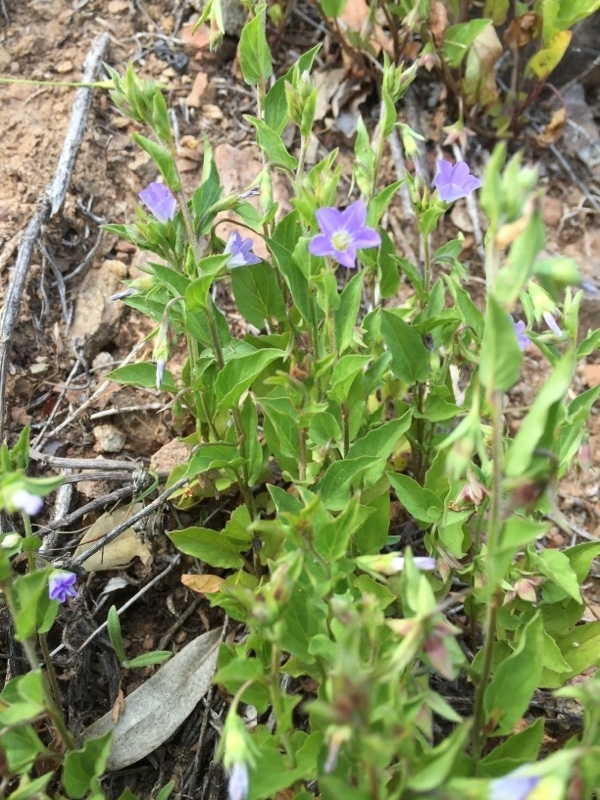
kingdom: Plantae
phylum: Tracheophyta
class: Magnoliopsida
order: Solanales
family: Convolvulaceae
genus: Convolvulus
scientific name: Convolvulus siculus
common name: Small blue-convolvulus
